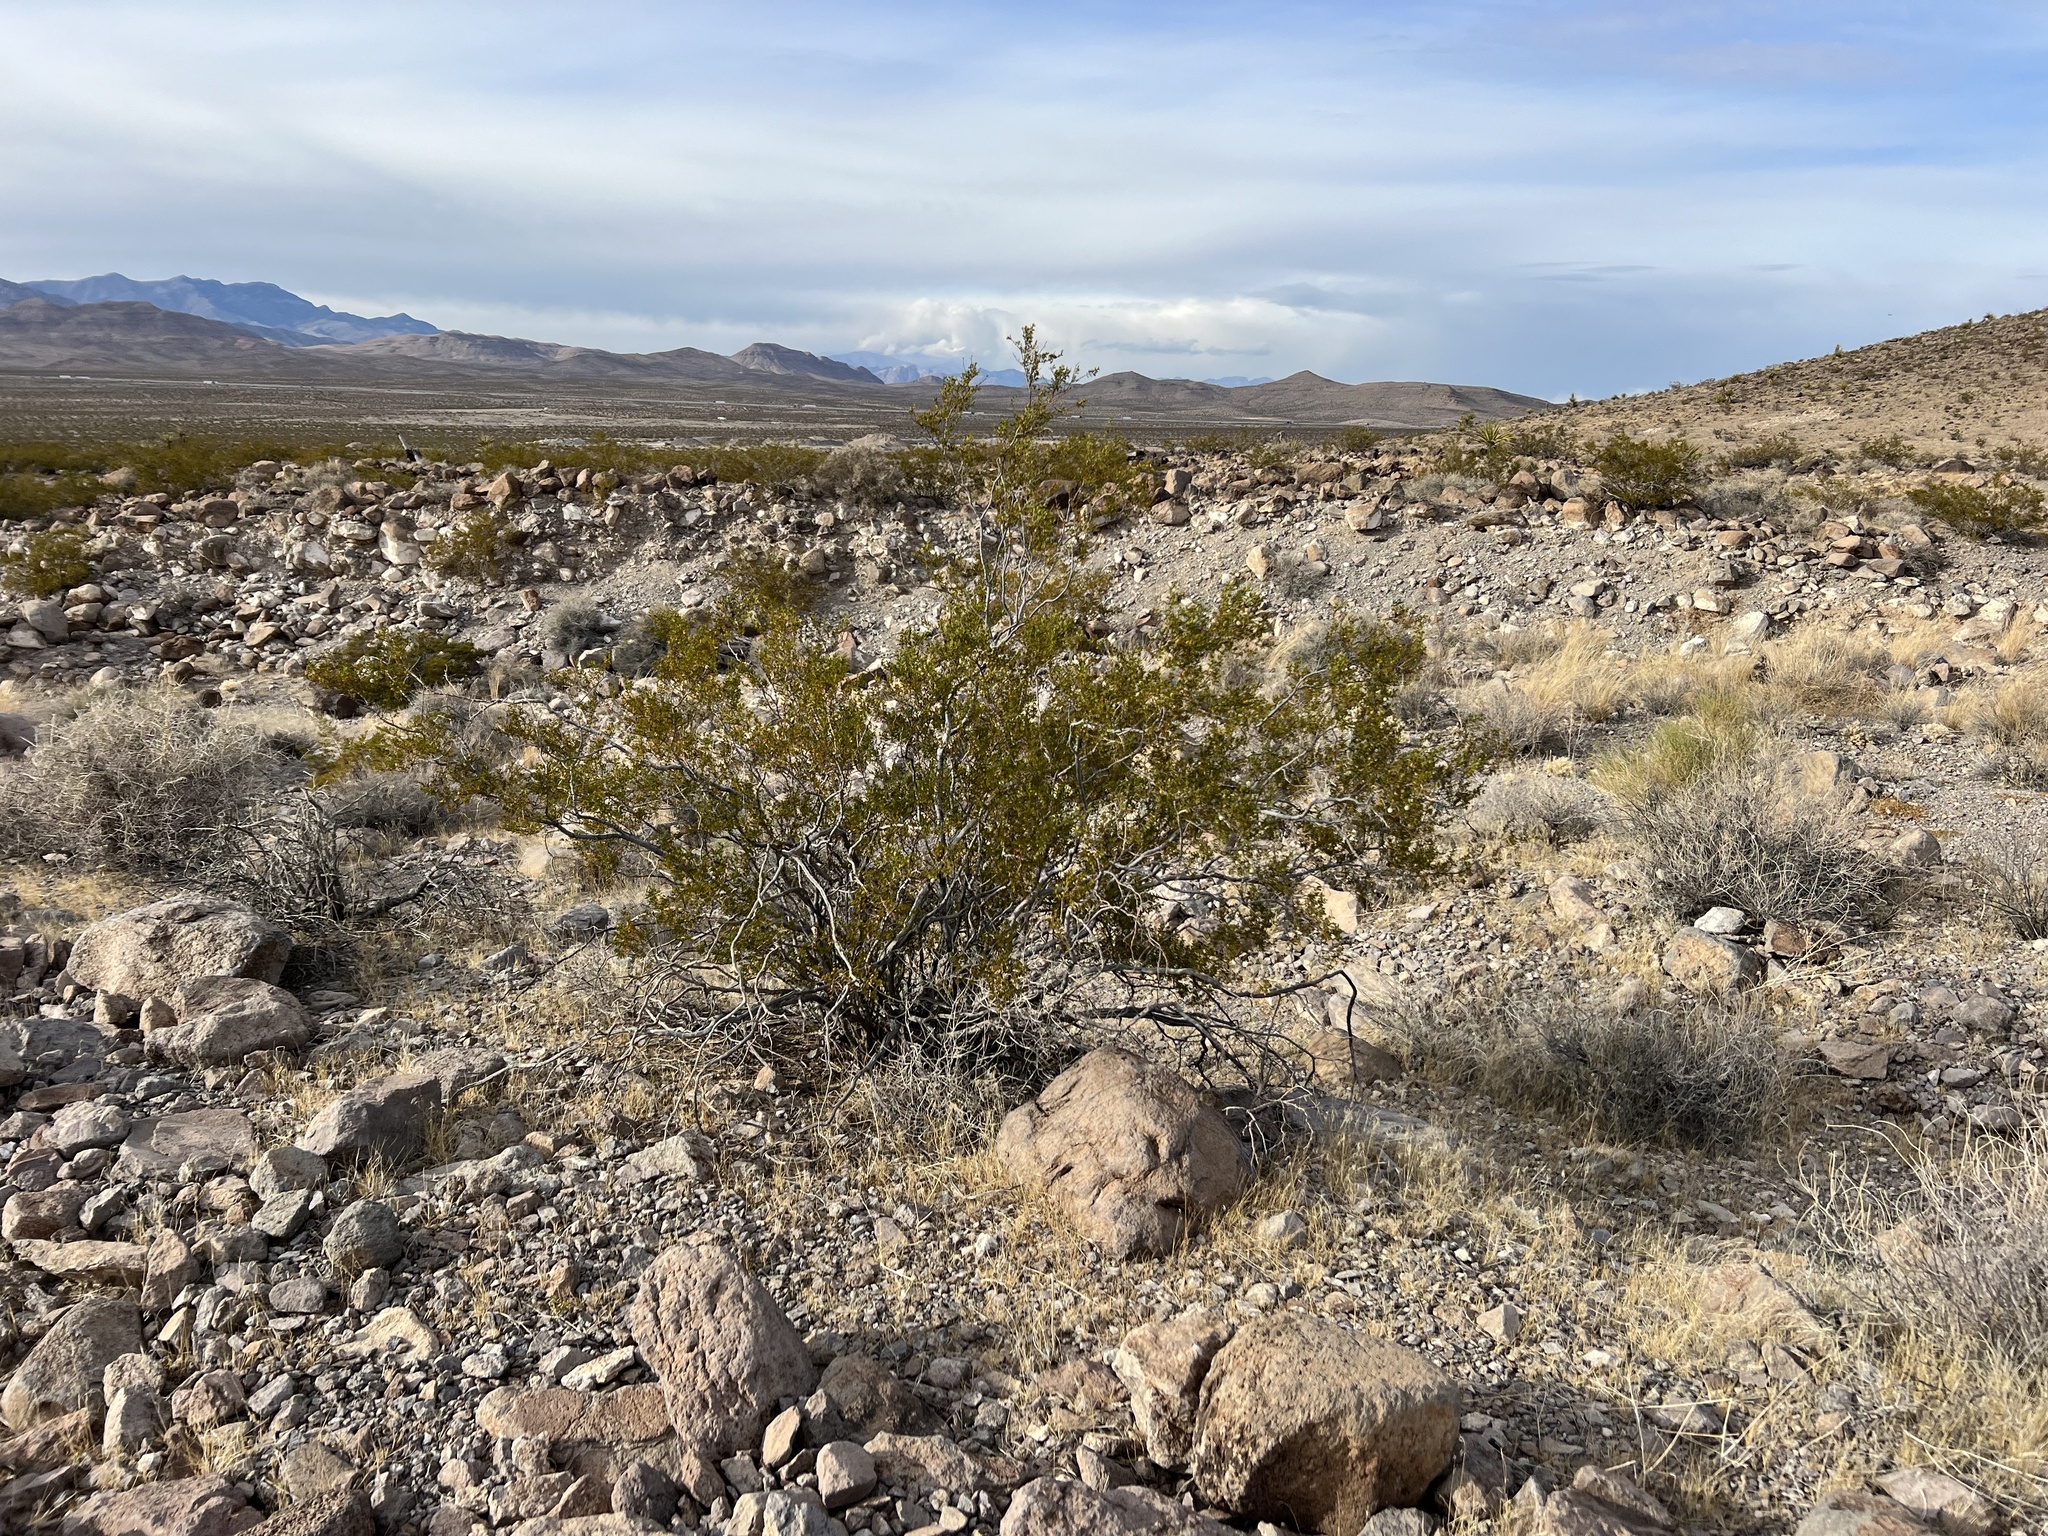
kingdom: Plantae
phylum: Tracheophyta
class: Magnoliopsida
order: Zygophyllales
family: Zygophyllaceae
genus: Larrea
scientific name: Larrea tridentata
